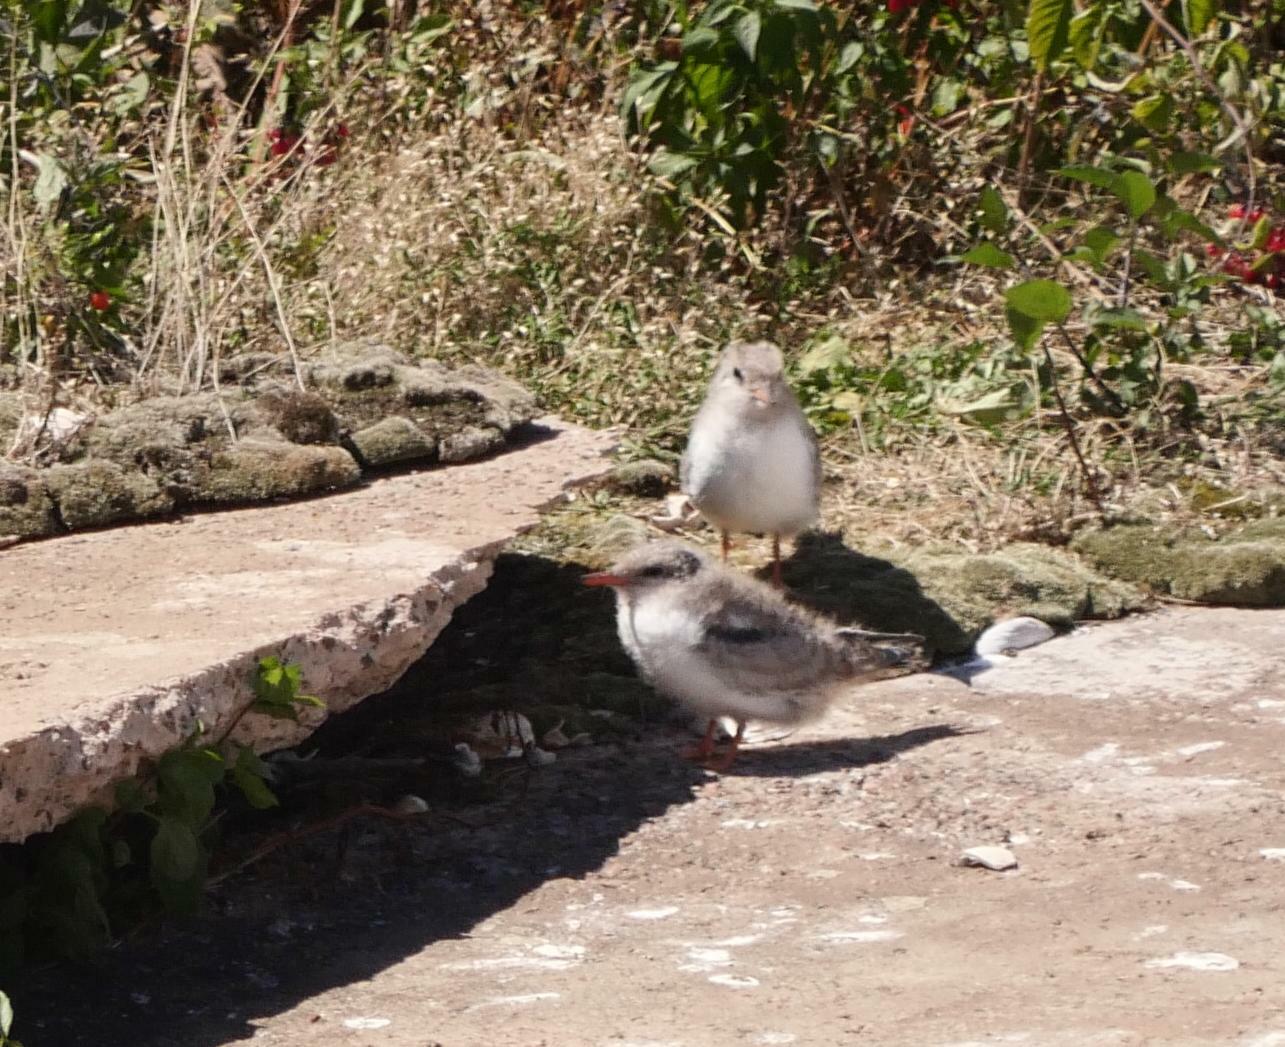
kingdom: Animalia
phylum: Chordata
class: Aves
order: Charadriiformes
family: Laridae
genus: Sterna
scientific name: Sterna hirundo
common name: Common tern
